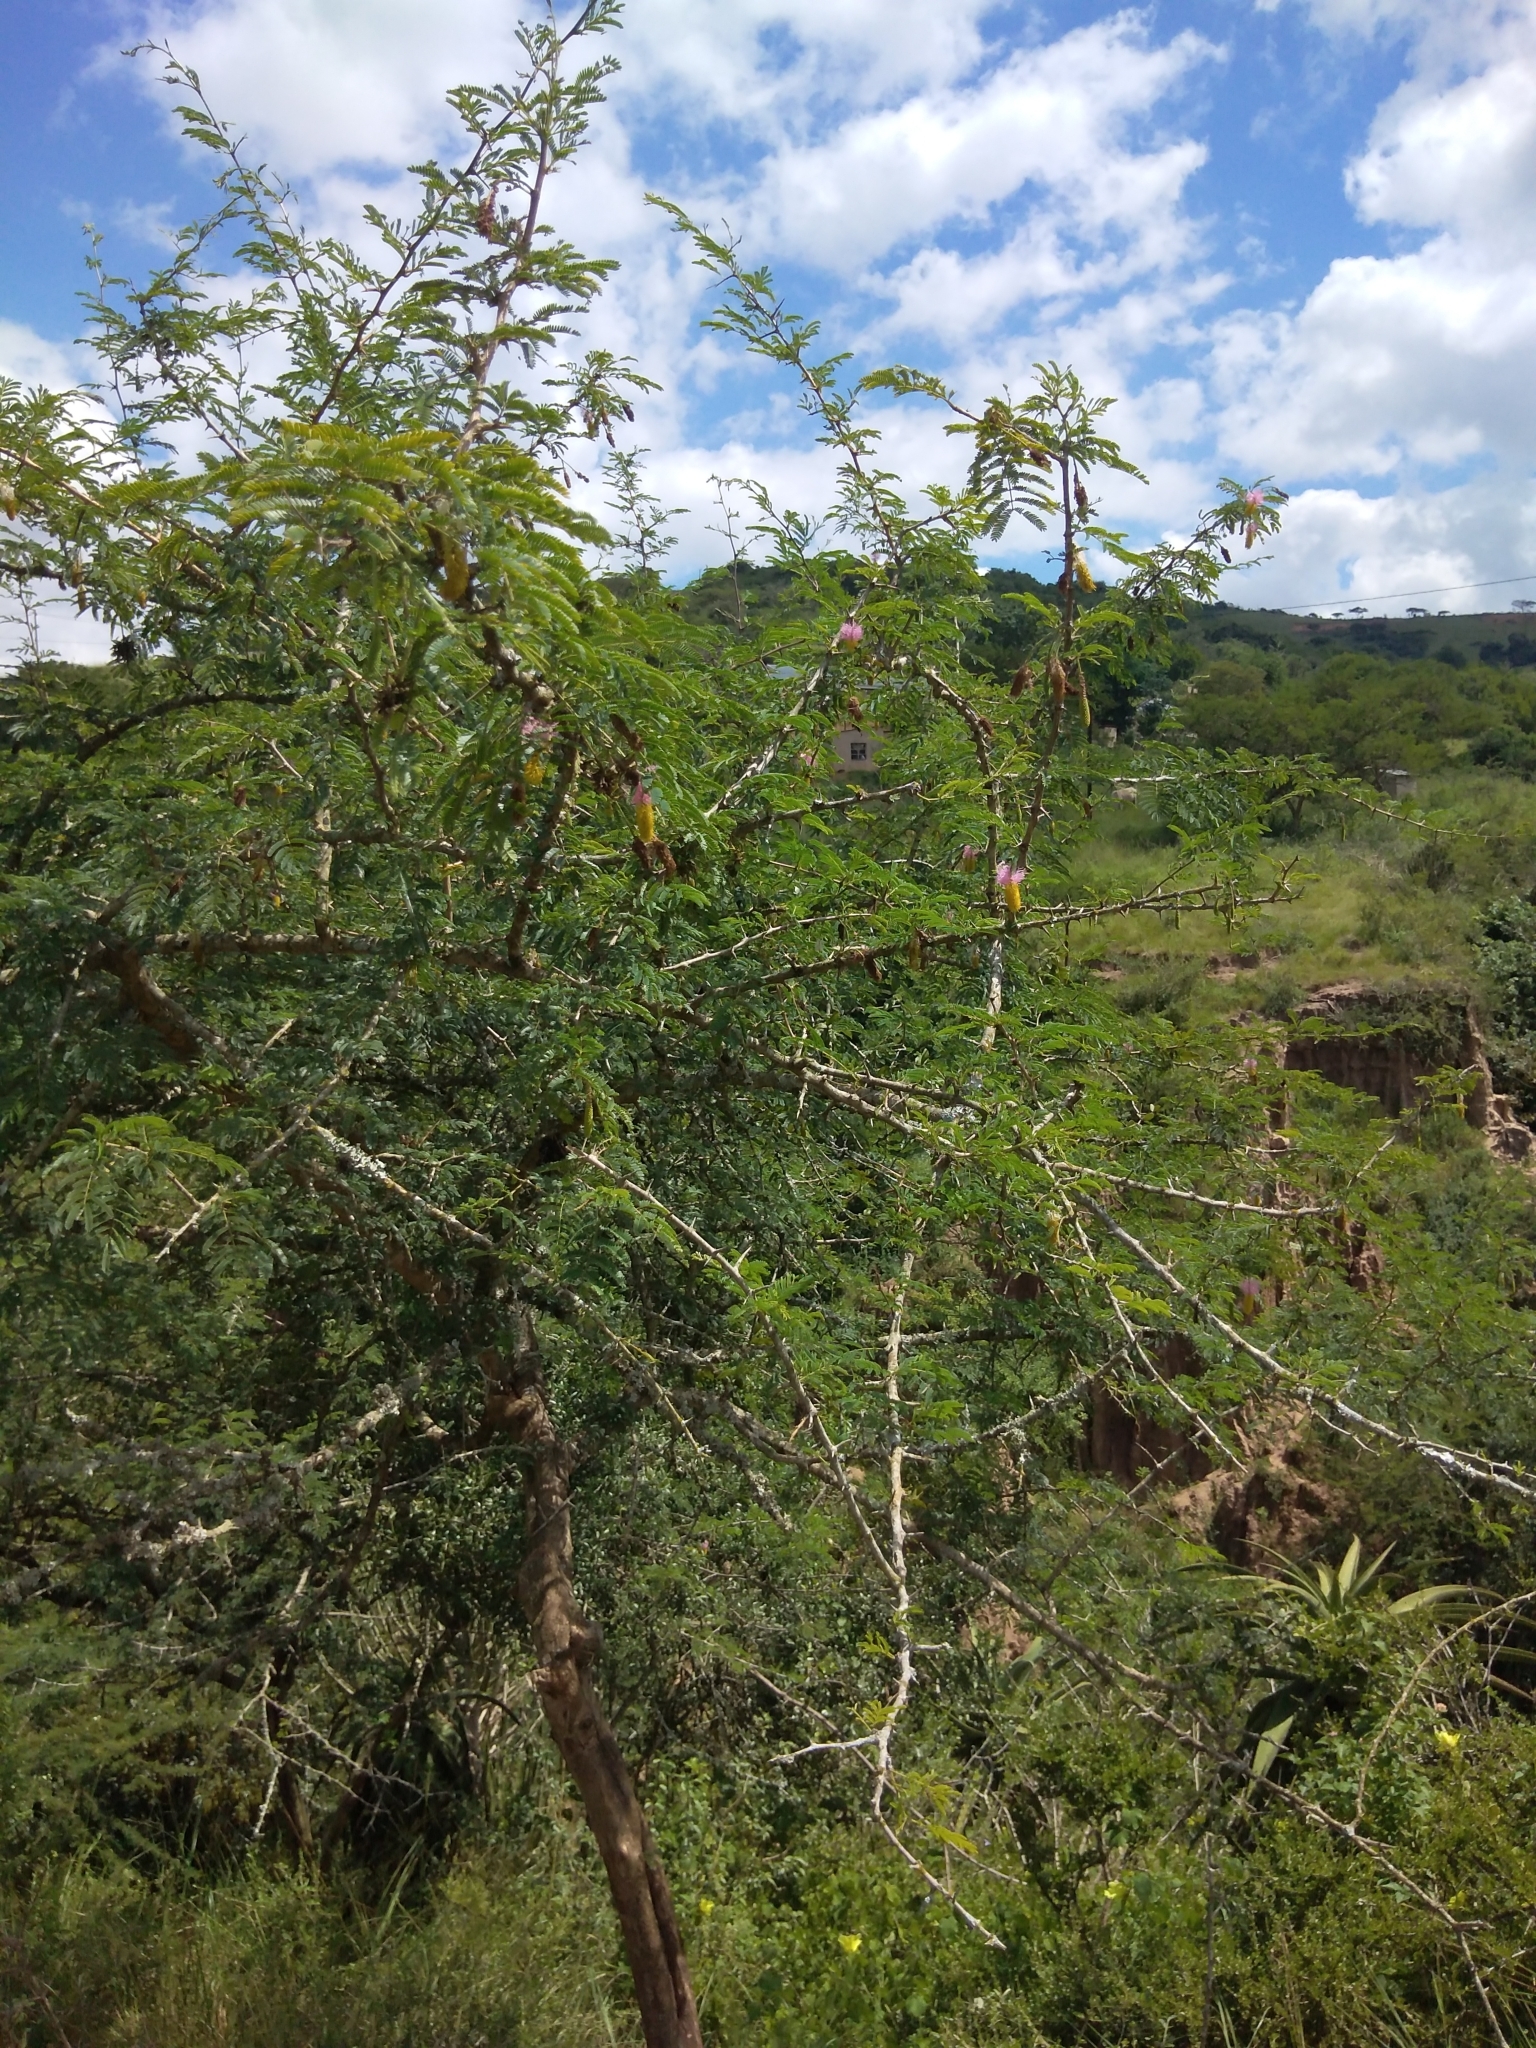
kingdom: Plantae
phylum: Tracheophyta
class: Magnoliopsida
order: Fabales
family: Fabaceae
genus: Dichrostachys
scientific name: Dichrostachys cinerea
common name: Sicklebush
